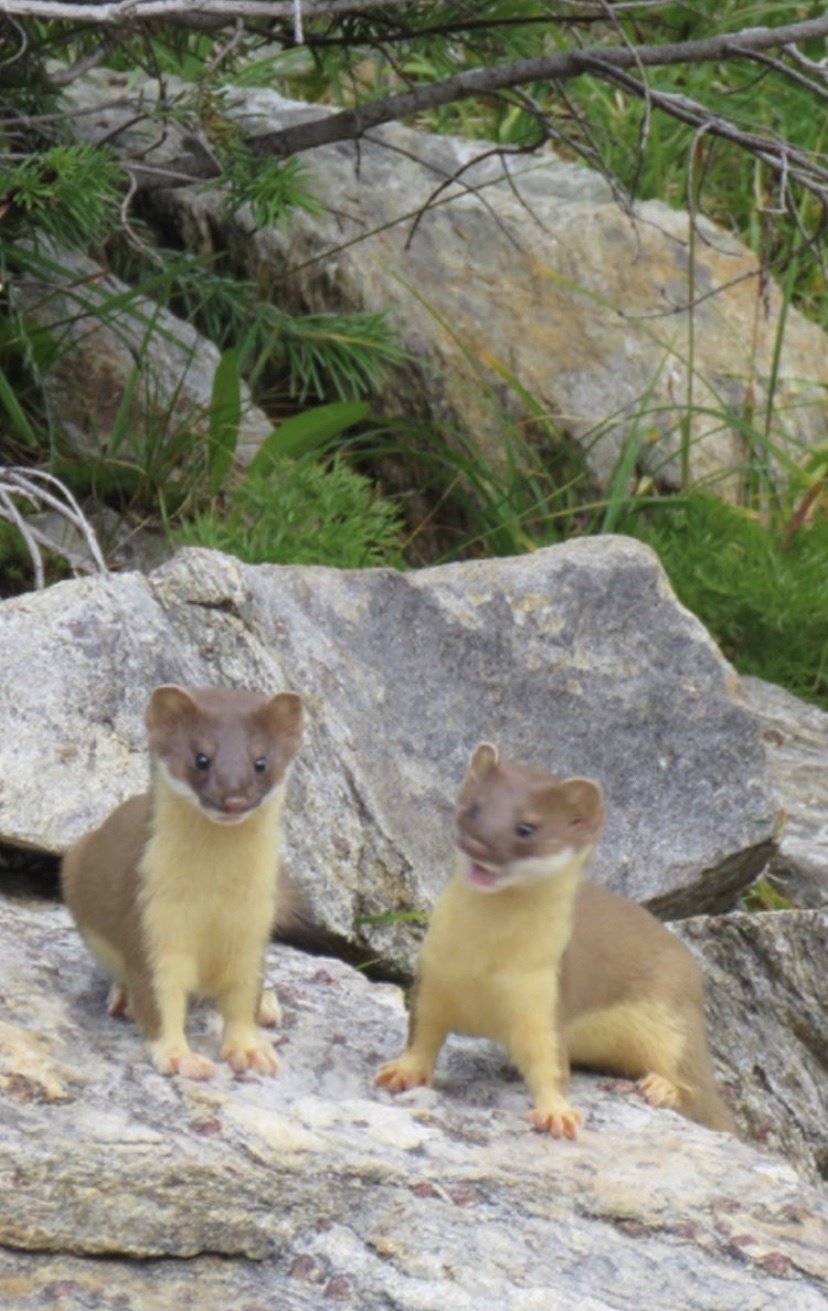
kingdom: Animalia
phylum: Chordata
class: Mammalia
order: Carnivora
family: Mustelidae
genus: Mustela
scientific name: Mustela
